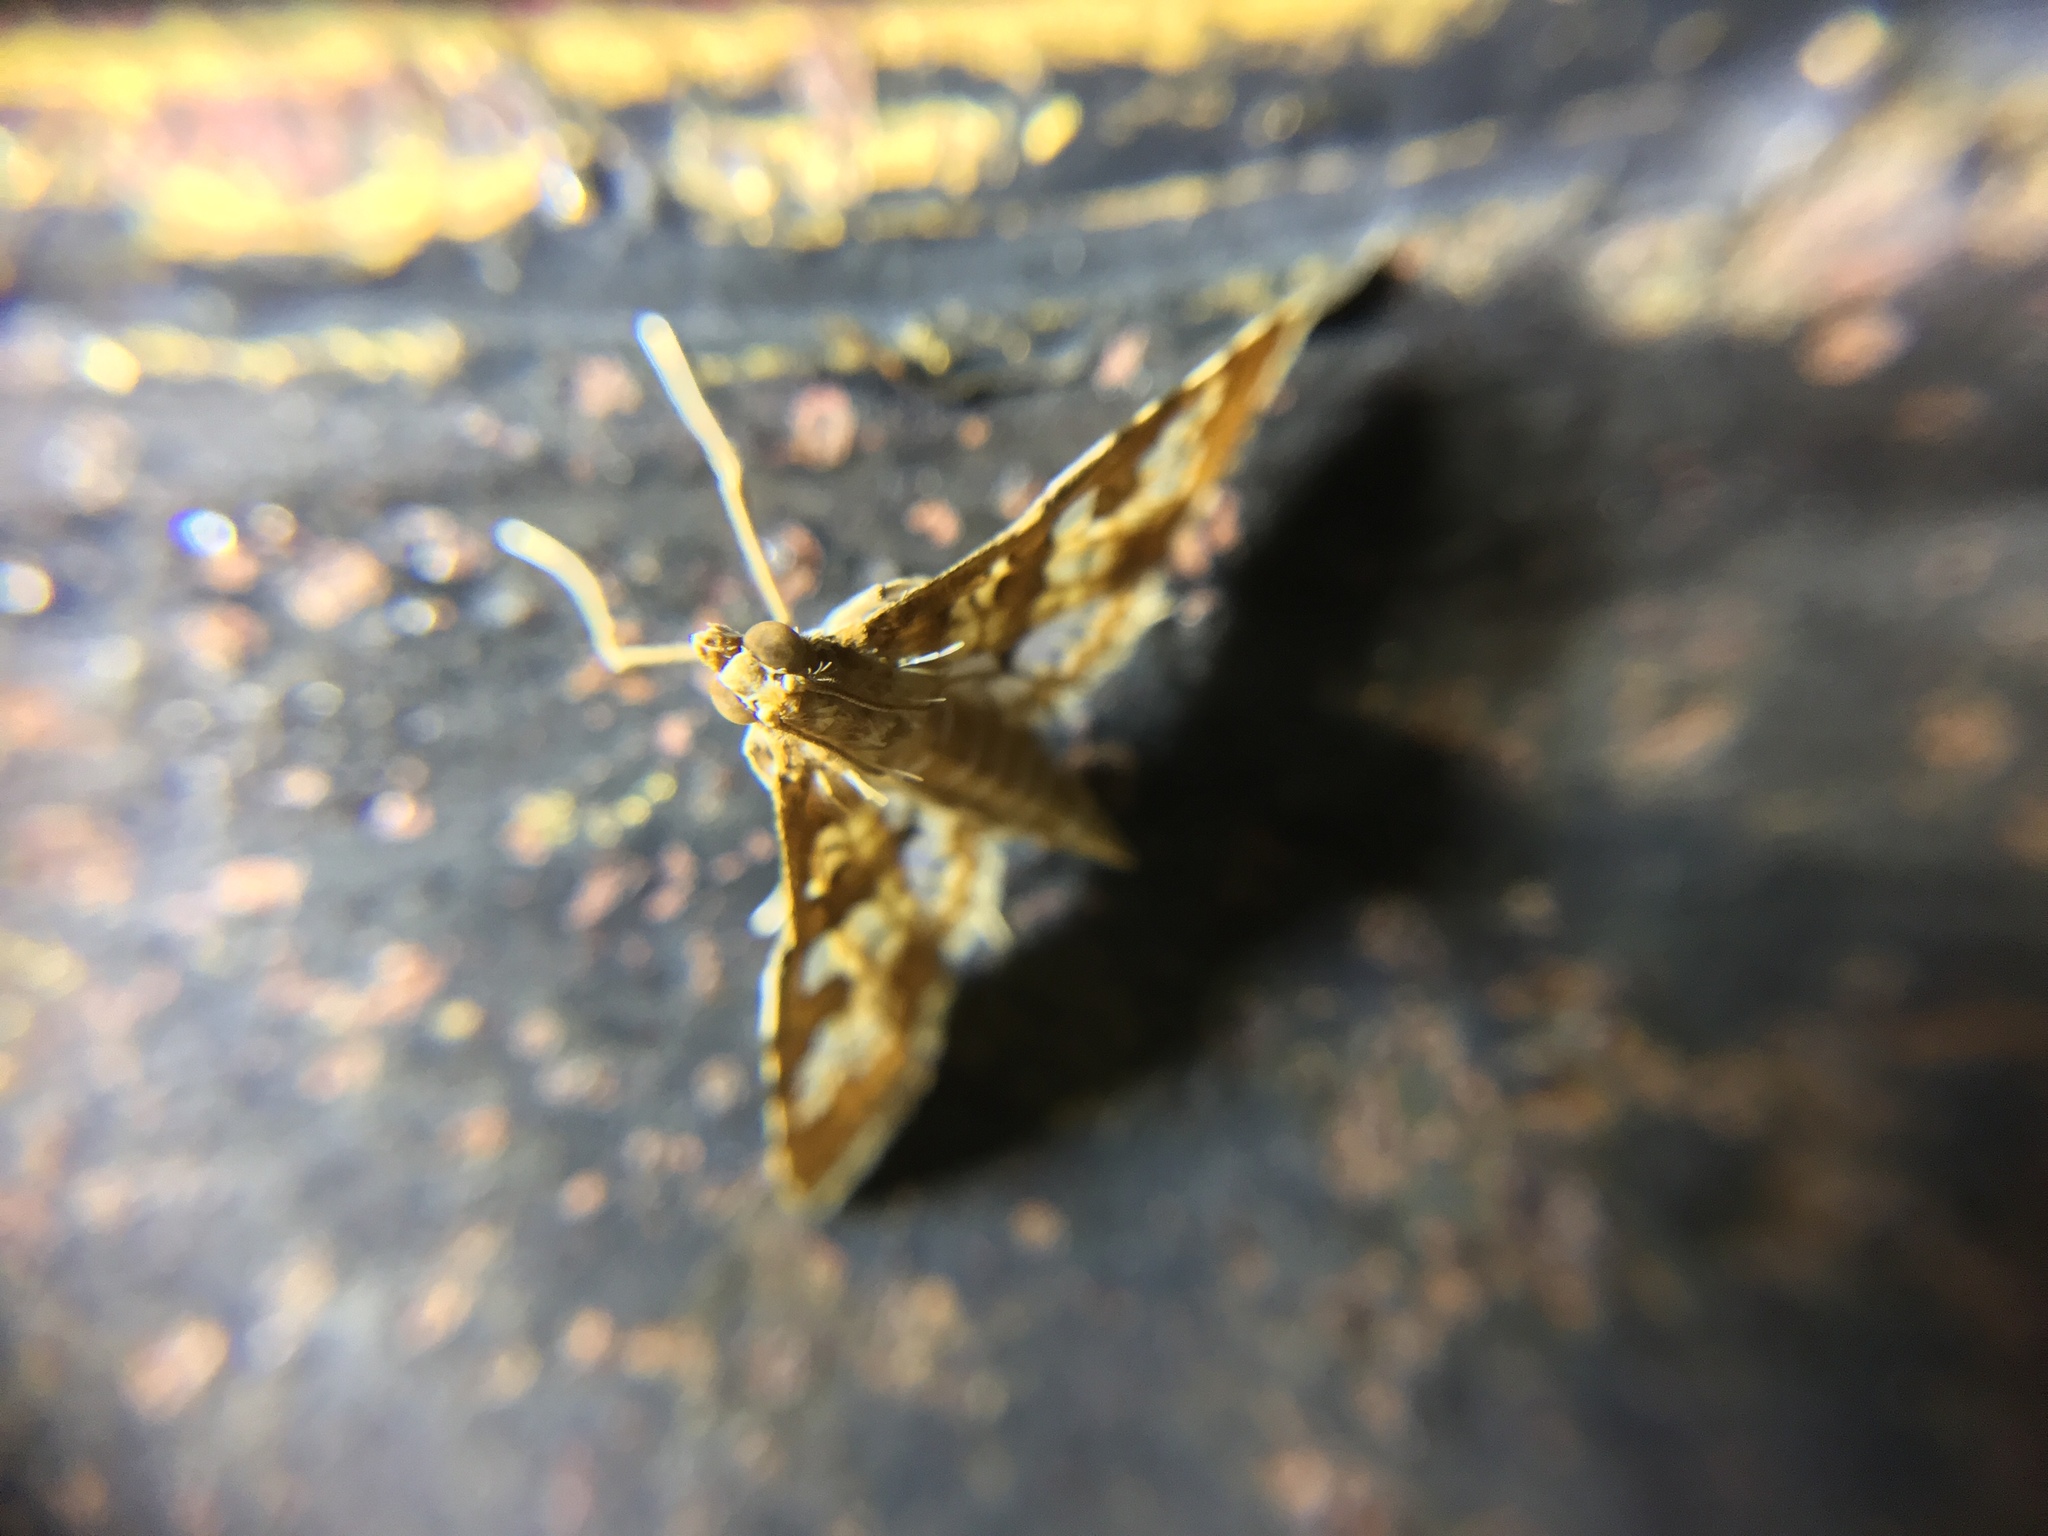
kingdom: Animalia
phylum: Arthropoda
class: Insecta
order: Lepidoptera
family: Crambidae
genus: Sameodes
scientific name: Sameodes cancellalis
